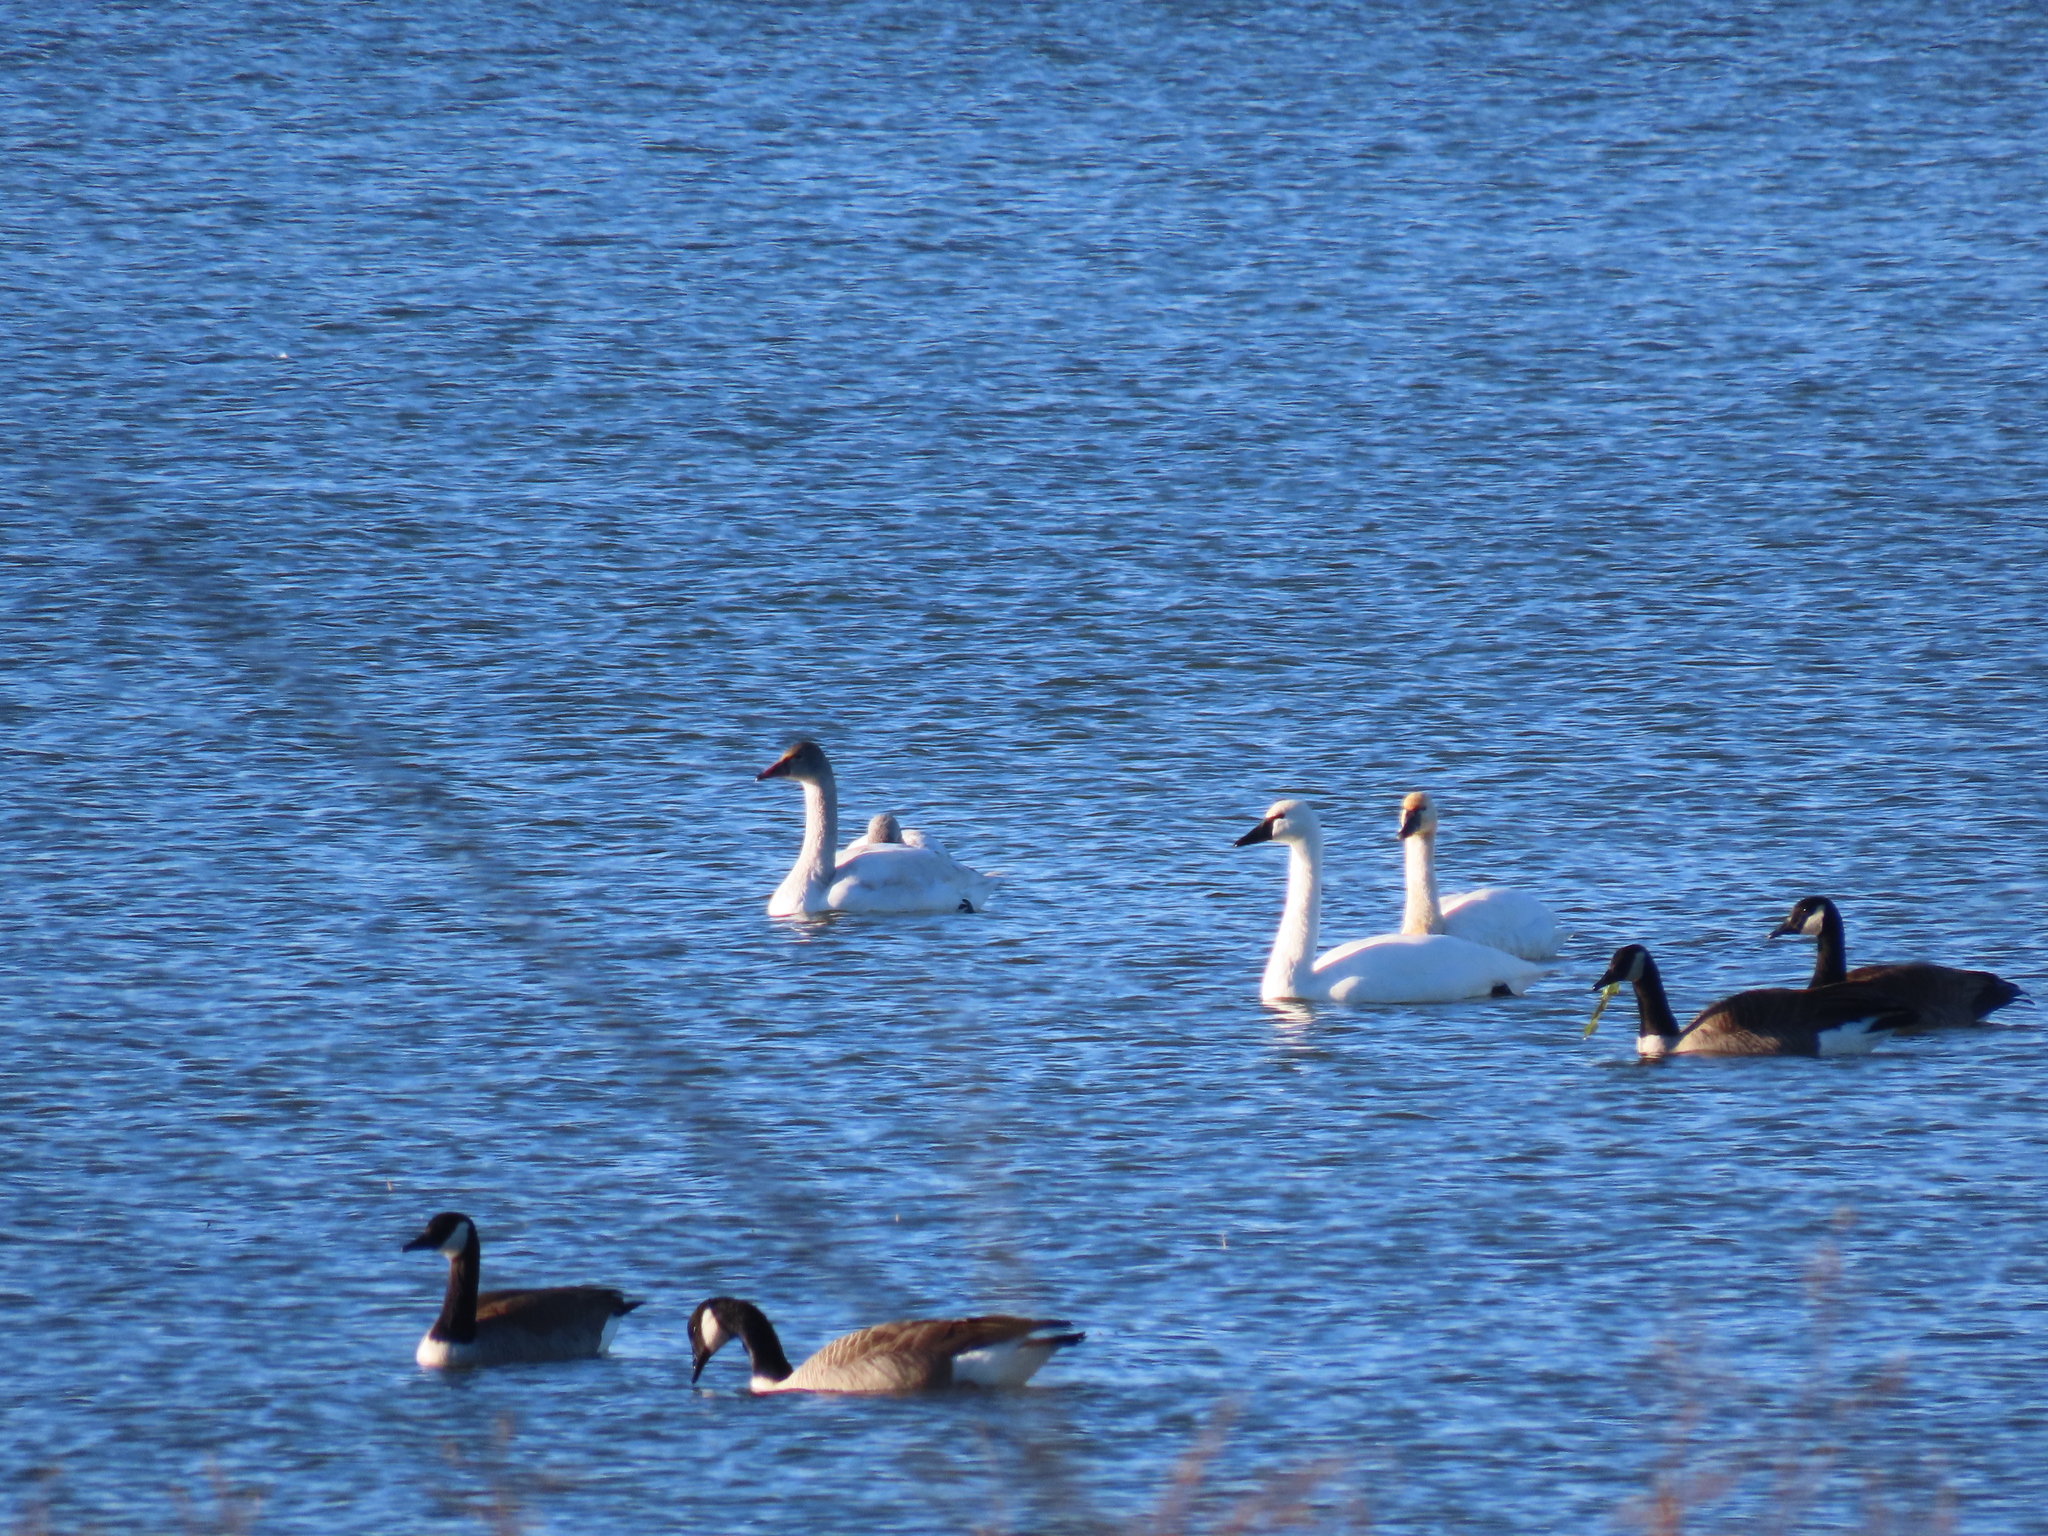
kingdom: Animalia
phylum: Chordata
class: Aves
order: Anseriformes
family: Anatidae
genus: Cygnus
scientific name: Cygnus columbianus
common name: Tundra swan
